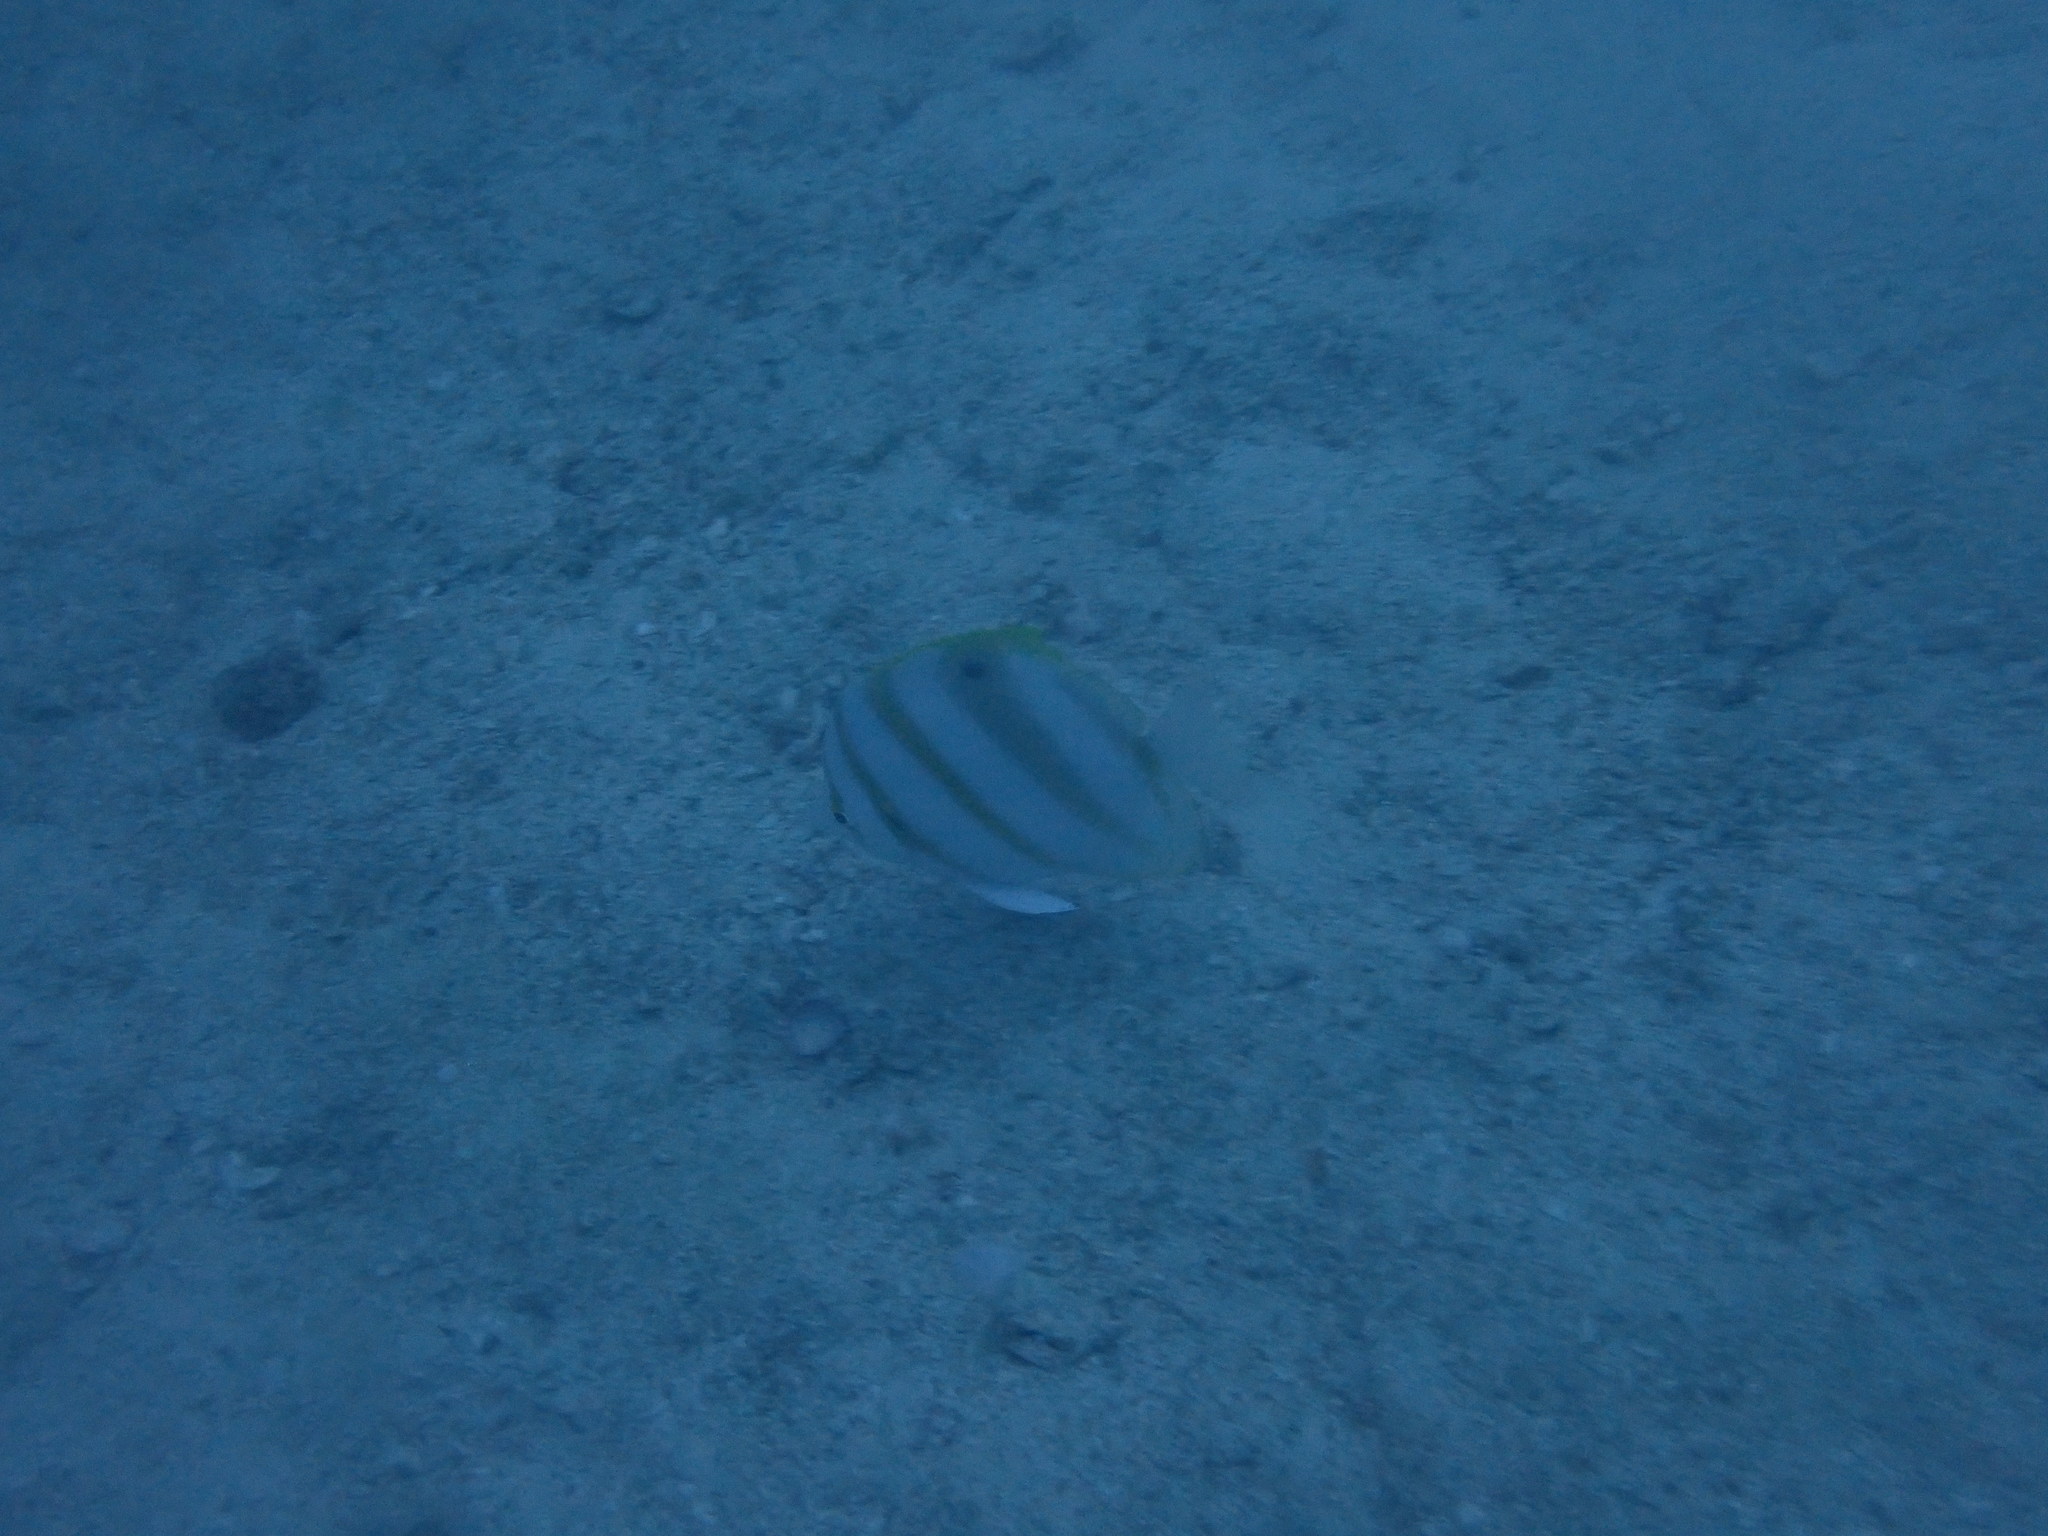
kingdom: Animalia
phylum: Chordata
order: Perciformes
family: Chaetodontidae
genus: Parachaetodon
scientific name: Parachaetodon ocellatus
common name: Ocellate coralfish
